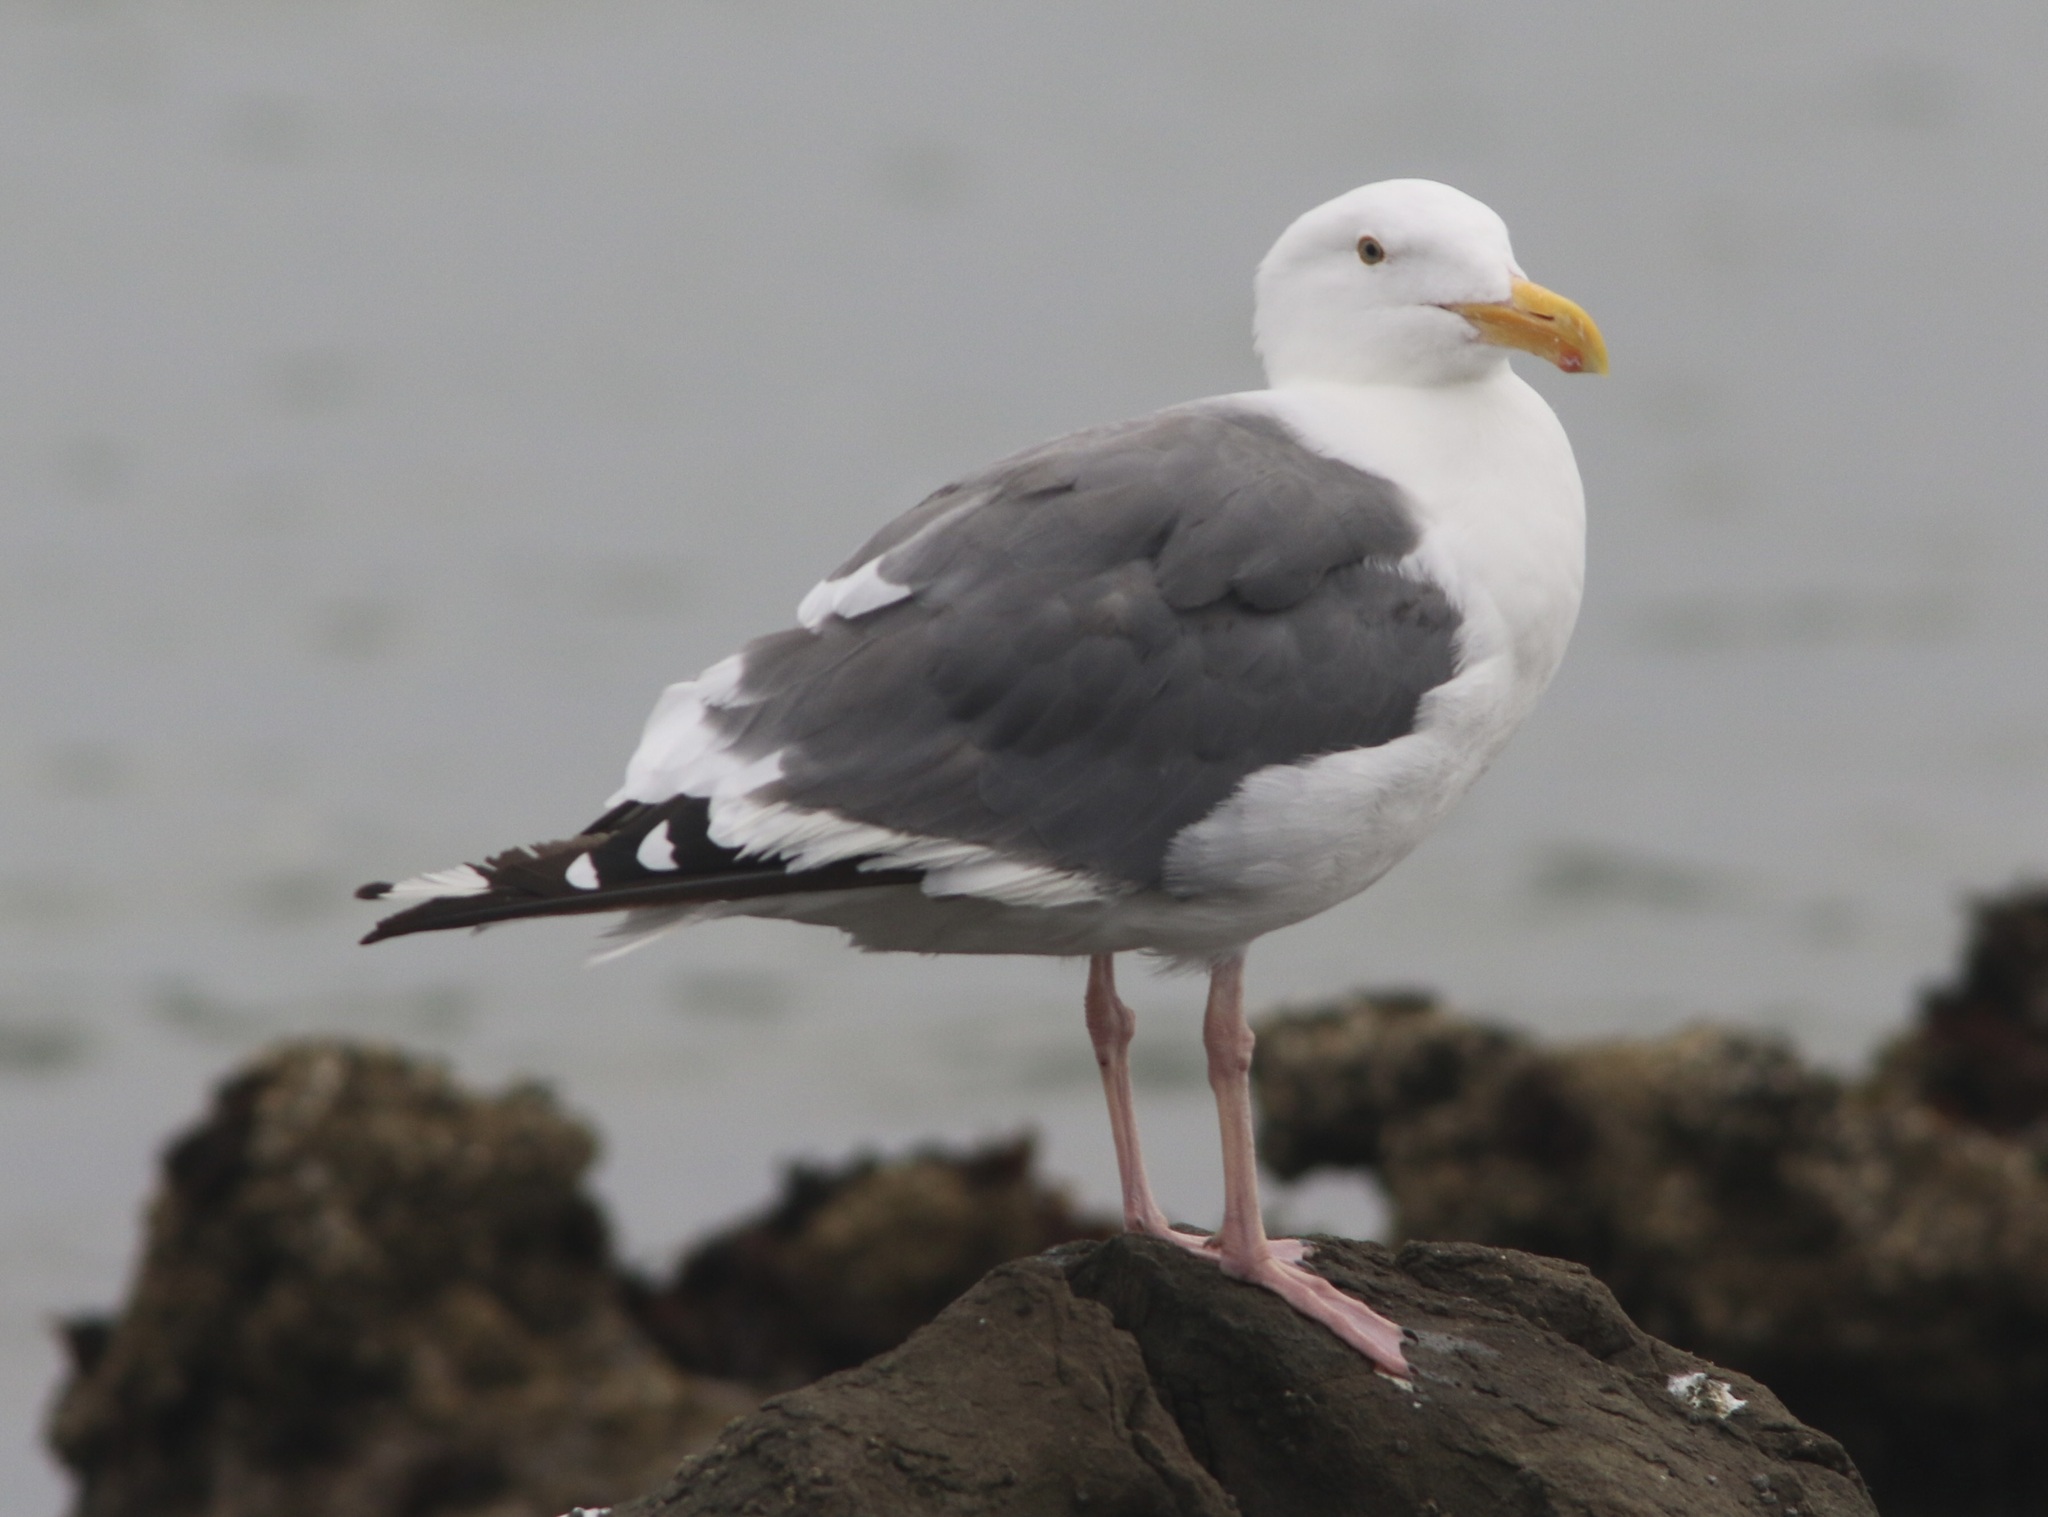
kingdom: Animalia
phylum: Chordata
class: Aves
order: Charadriiformes
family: Laridae
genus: Larus
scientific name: Larus occidentalis
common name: Western gull
